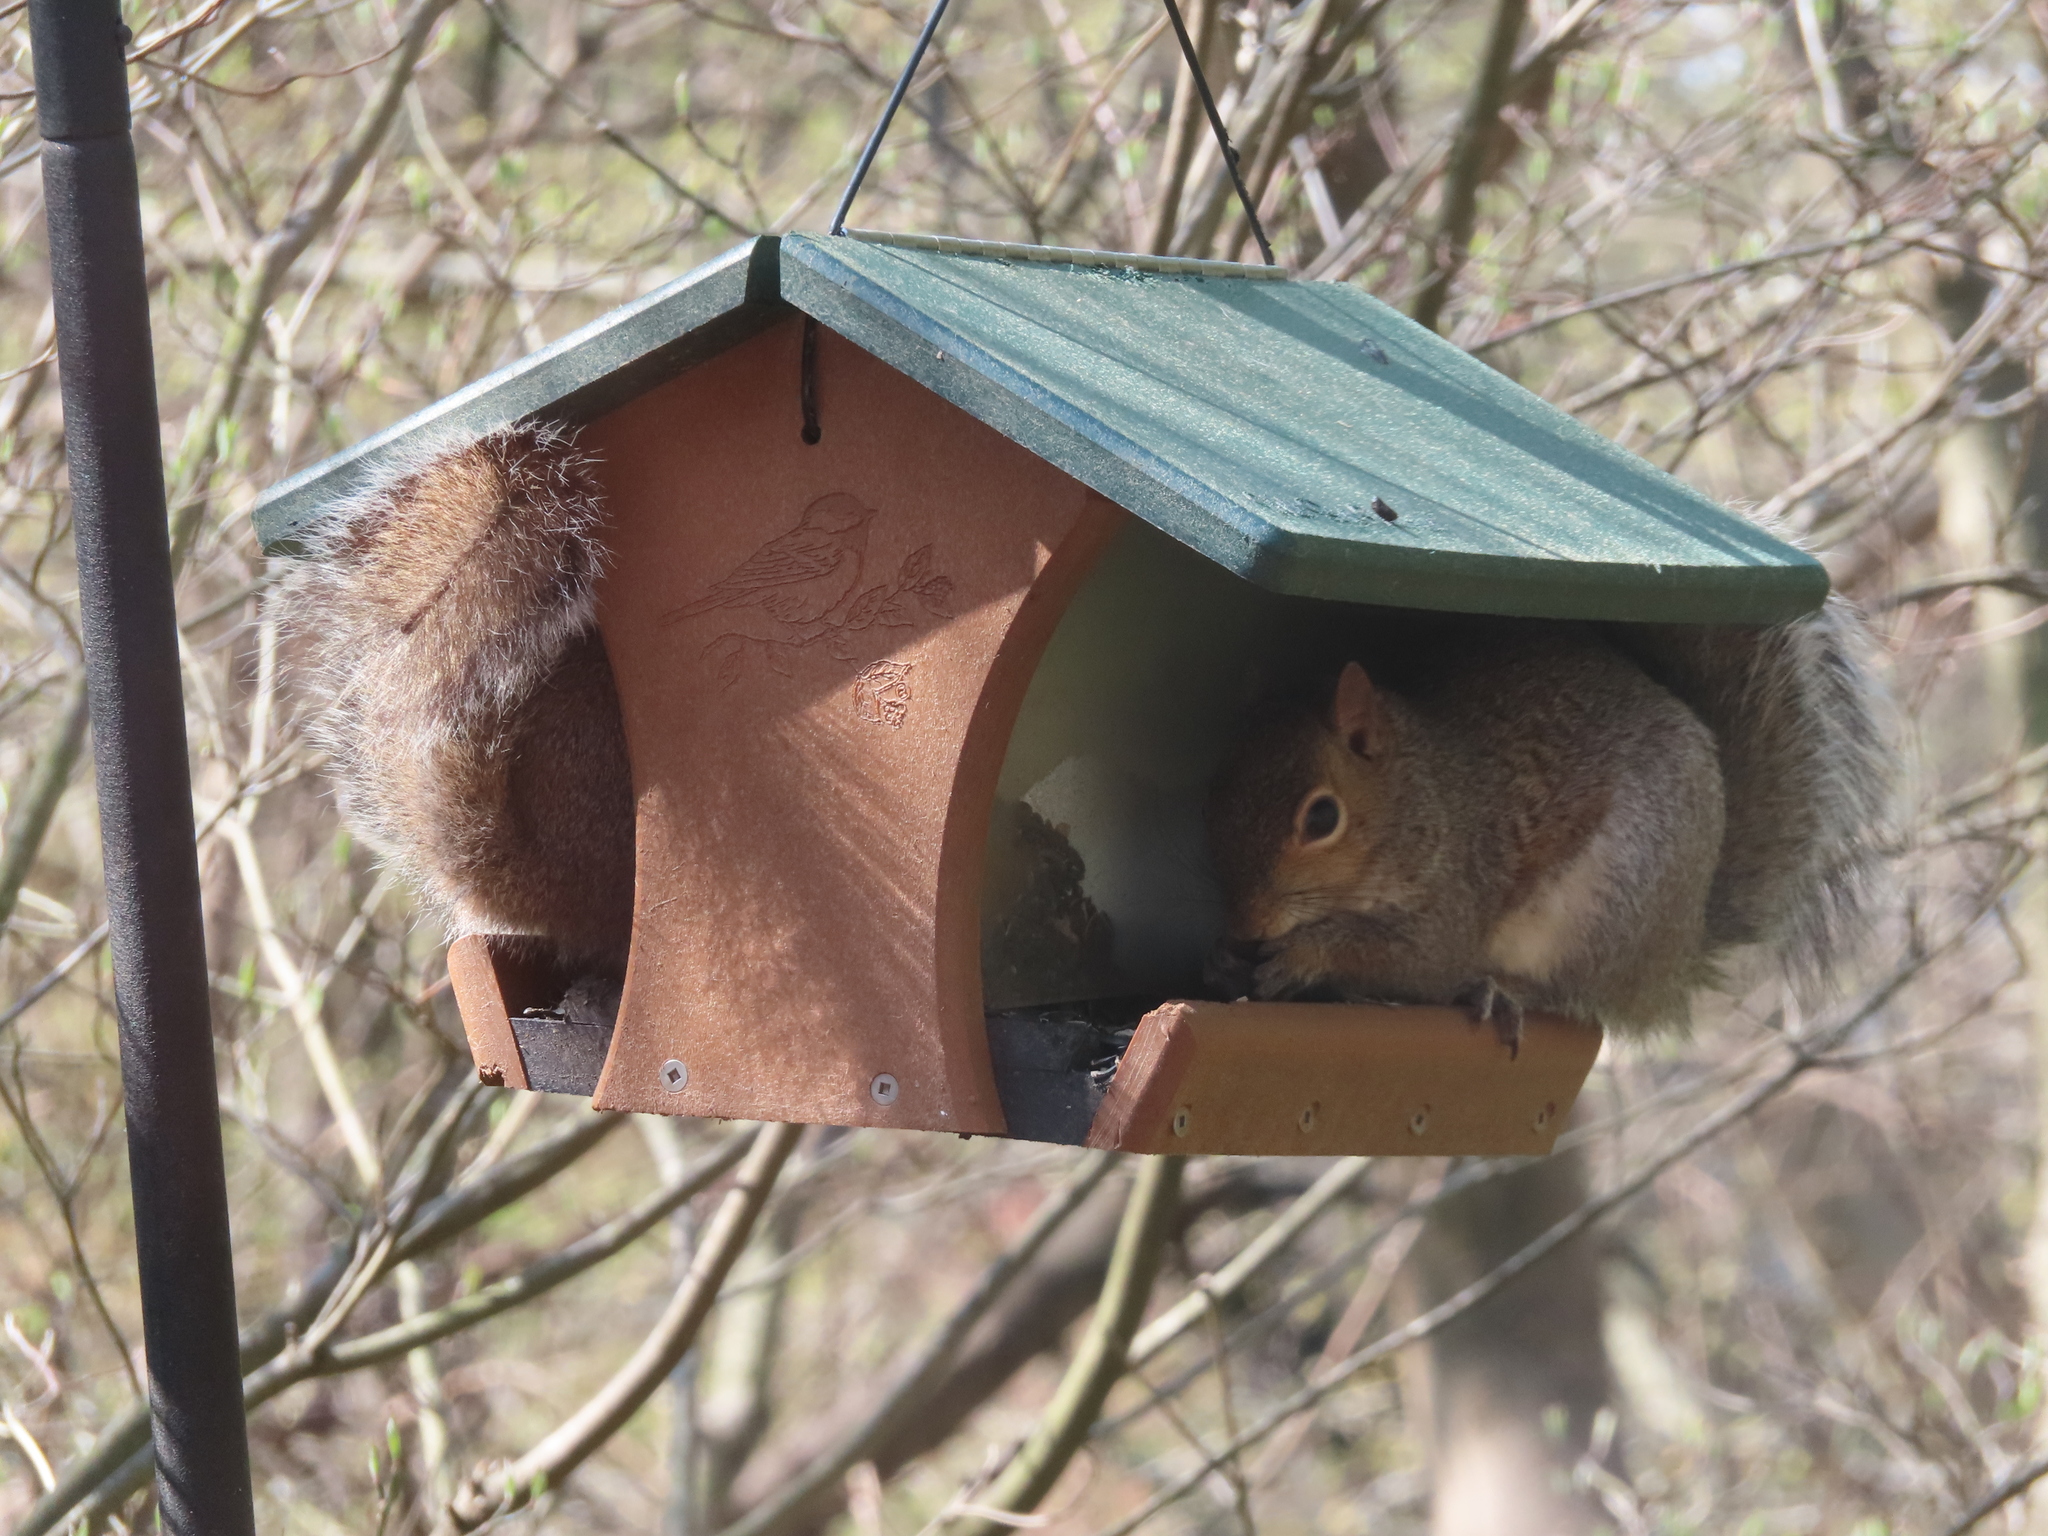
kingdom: Animalia
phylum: Chordata
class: Mammalia
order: Rodentia
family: Sciuridae
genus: Sciurus
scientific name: Sciurus carolinensis
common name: Eastern gray squirrel
